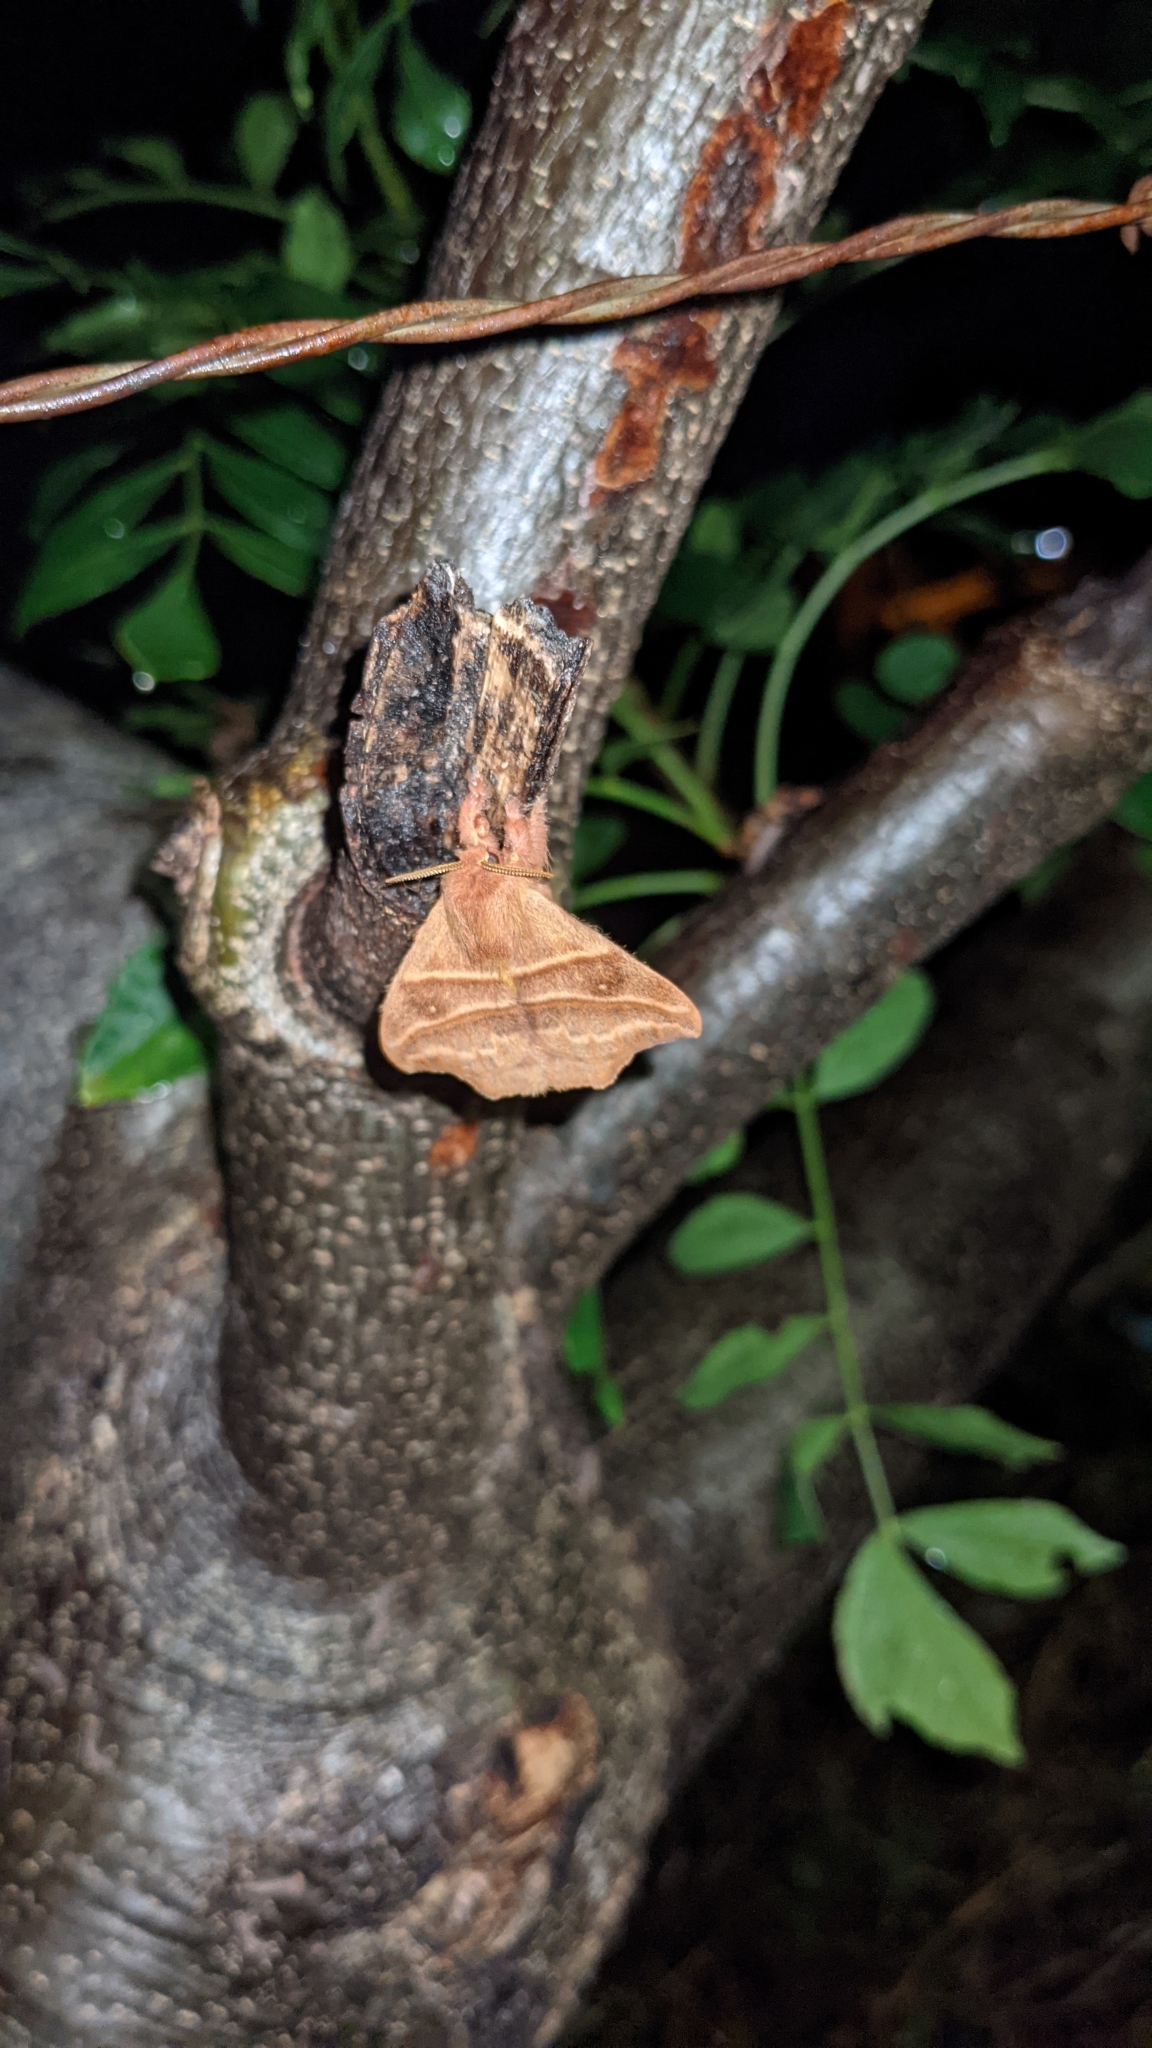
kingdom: Animalia
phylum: Arthropoda
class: Insecta
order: Lepidoptera
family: Saturniidae
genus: Hylesia
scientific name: Hylesia lineata
